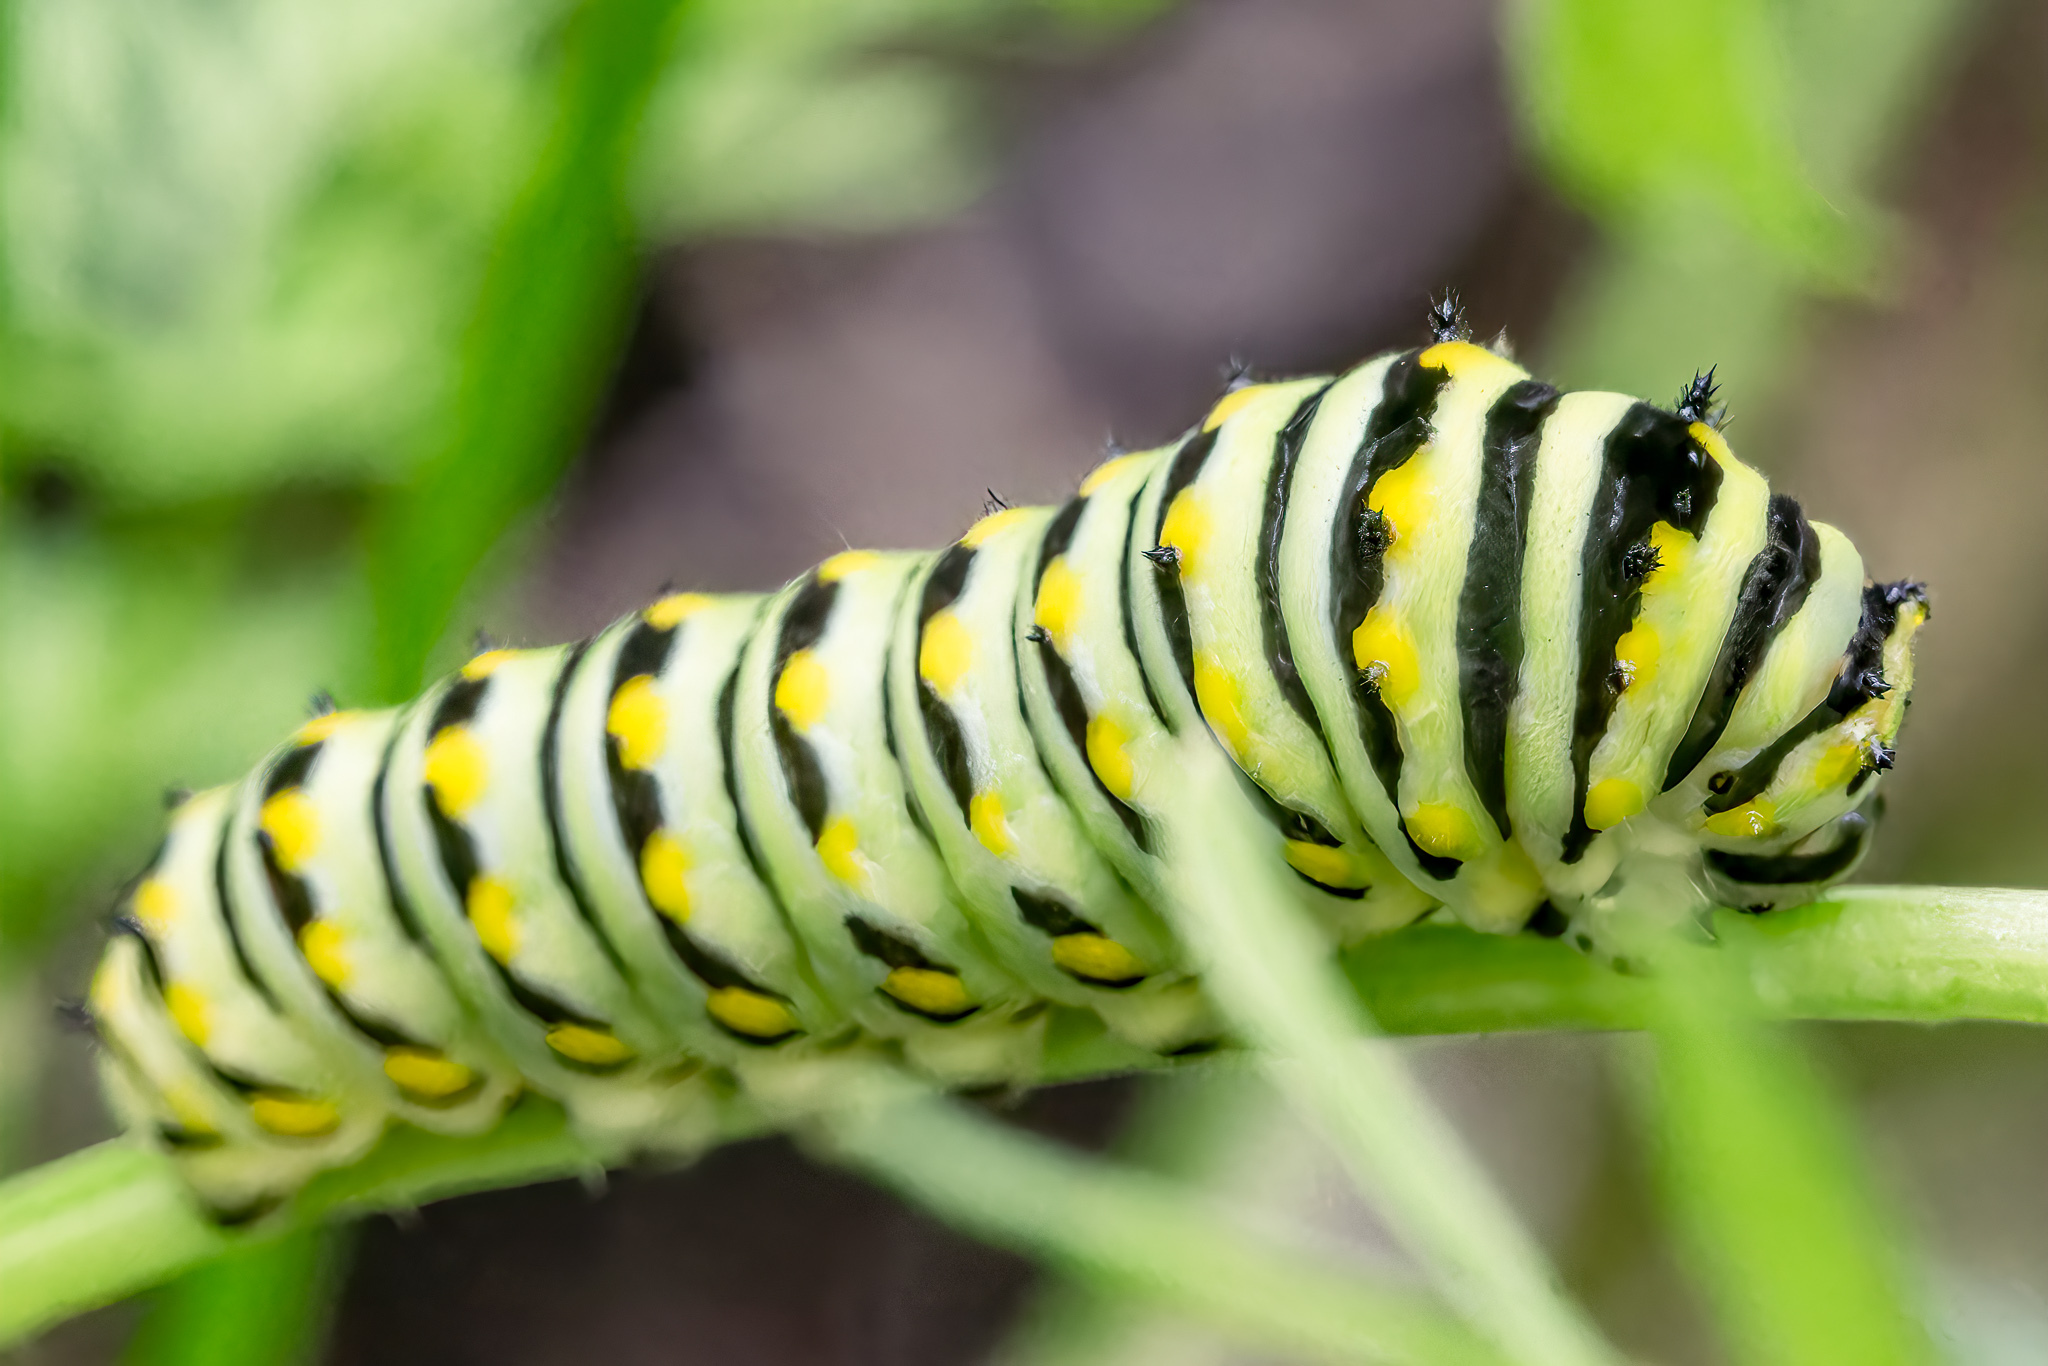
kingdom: Animalia
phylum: Arthropoda
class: Insecta
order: Lepidoptera
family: Papilionidae
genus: Papilio
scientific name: Papilio polyxenes
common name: Black swallowtail
